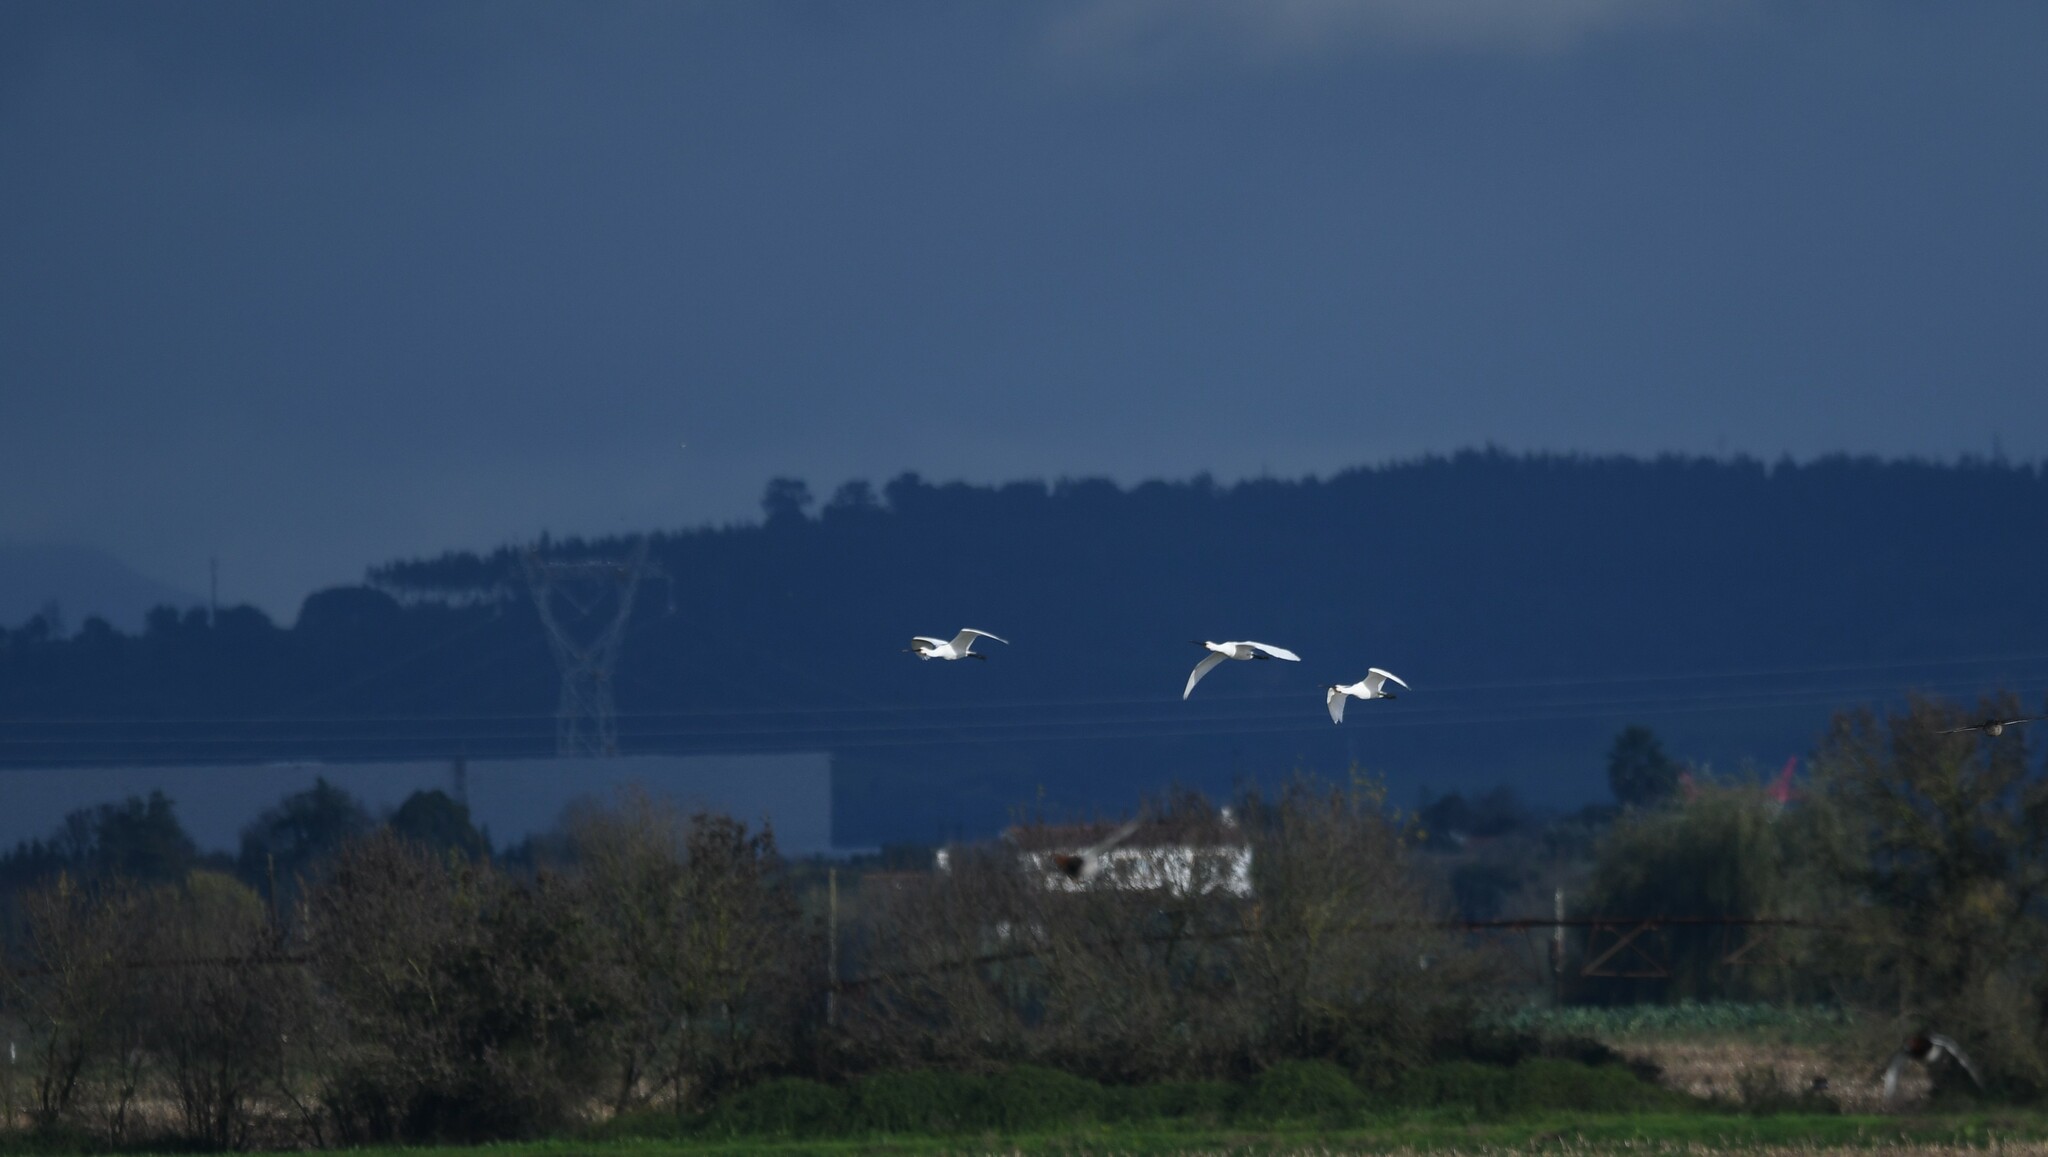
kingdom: Animalia
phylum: Chordata
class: Aves
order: Pelecaniformes
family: Threskiornithidae
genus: Platalea
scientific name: Platalea leucorodia
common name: Eurasian spoonbill
